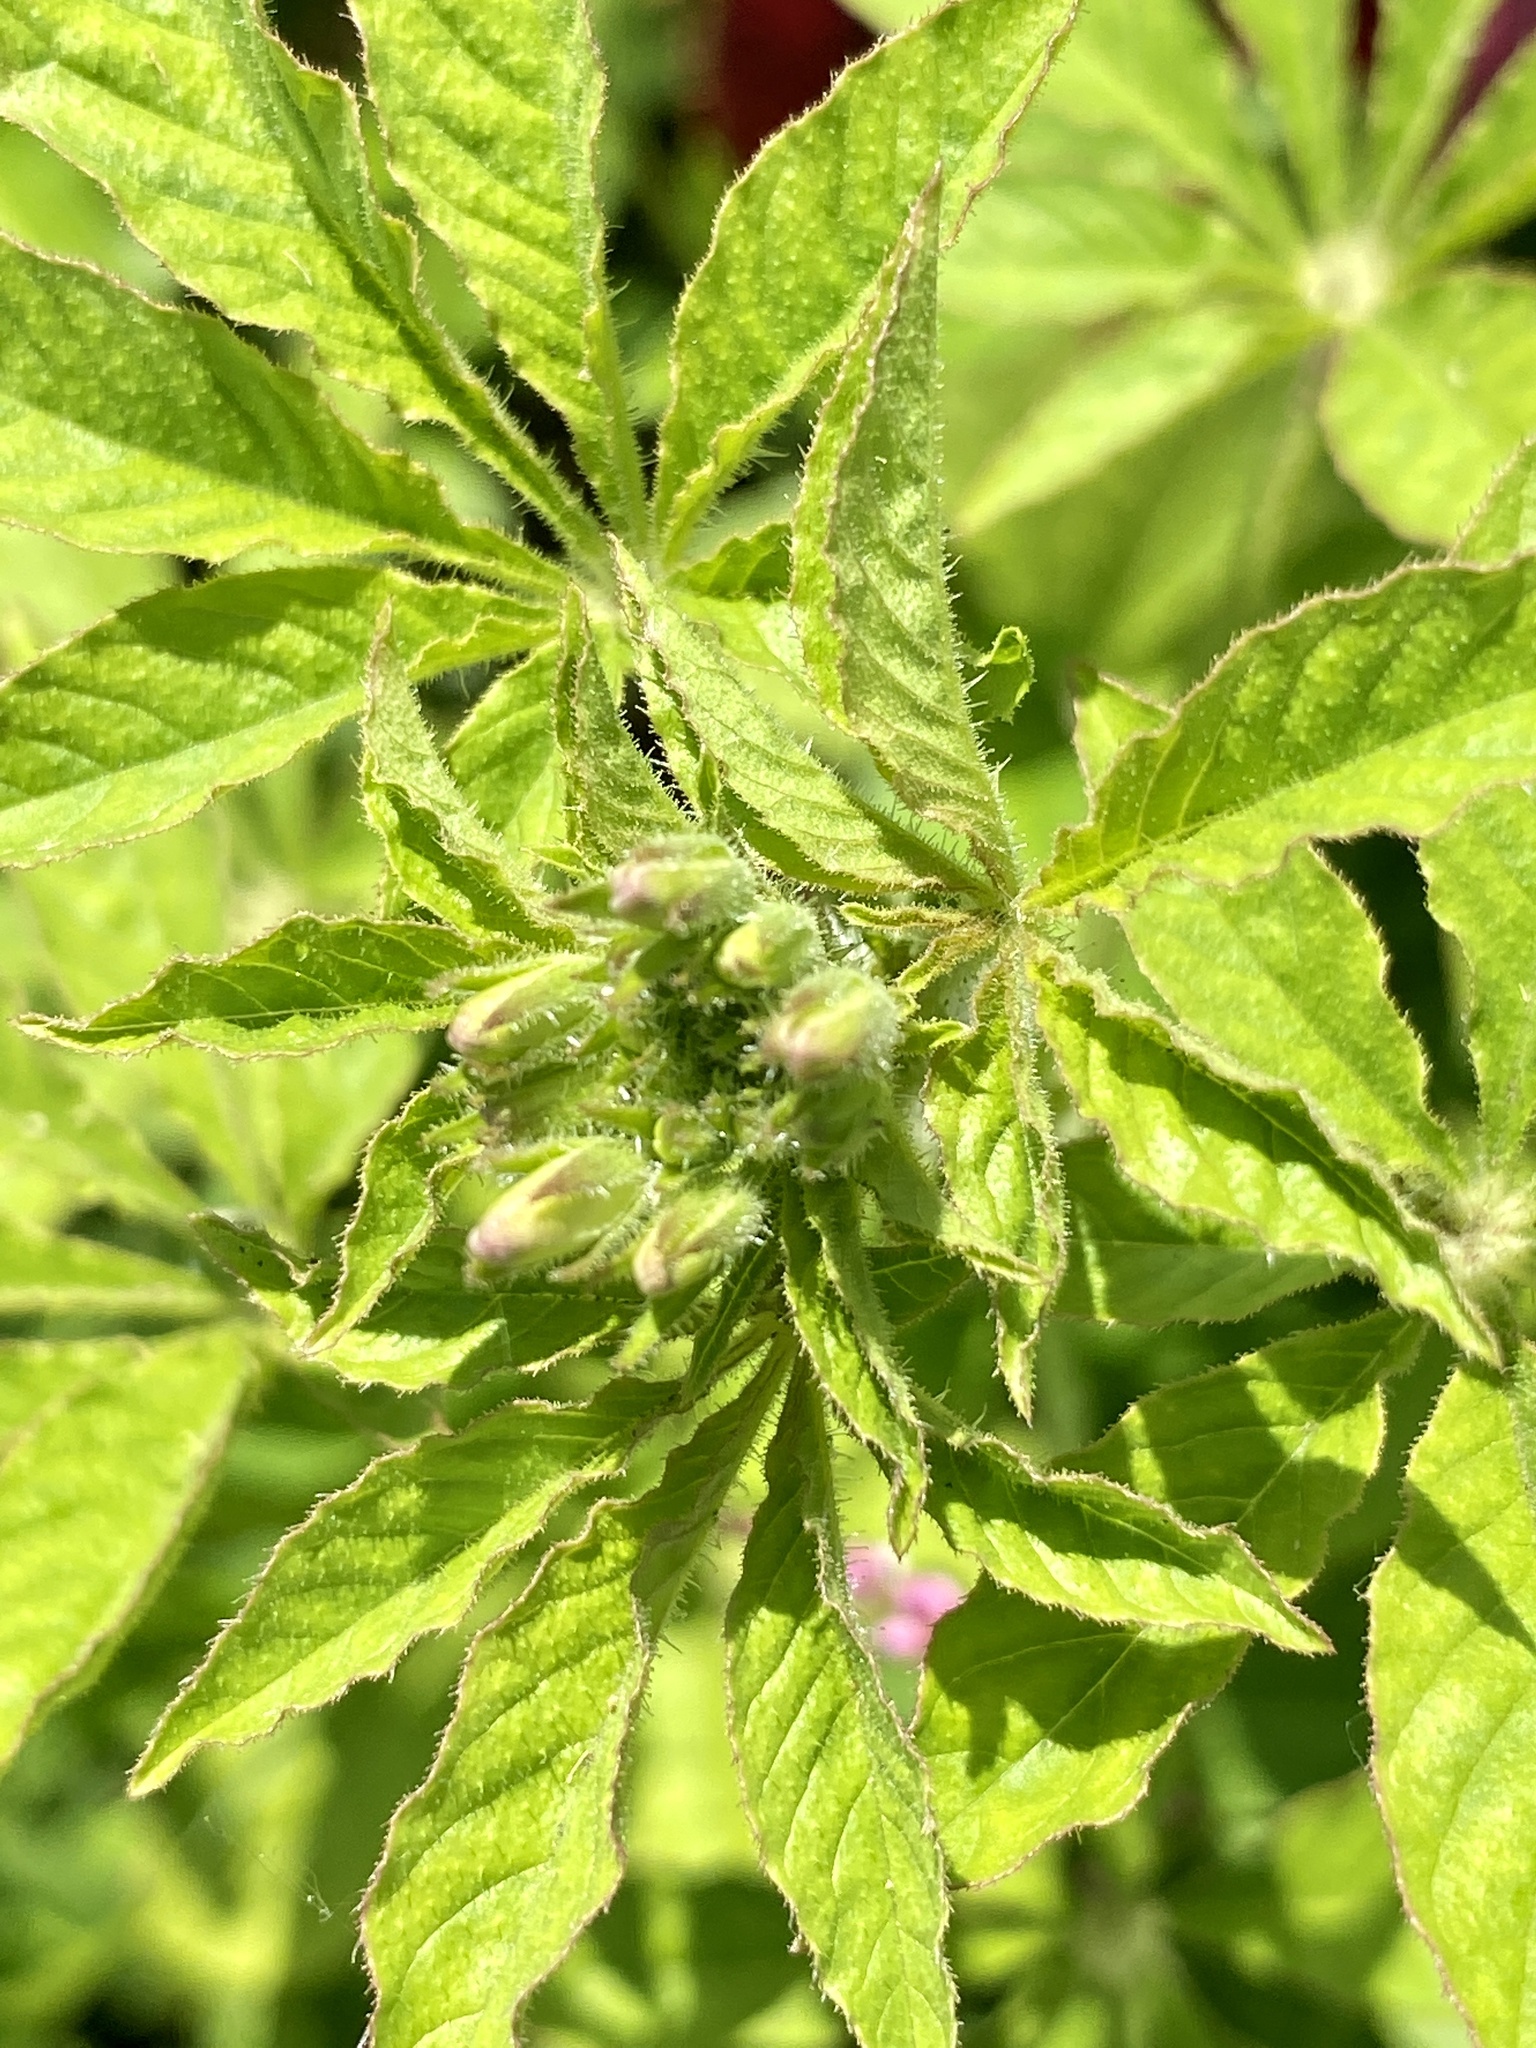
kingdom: Plantae
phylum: Tracheophyta
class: Magnoliopsida
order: Brassicales
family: Cleomaceae
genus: Tarenaya
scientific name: Tarenaya houtteana
